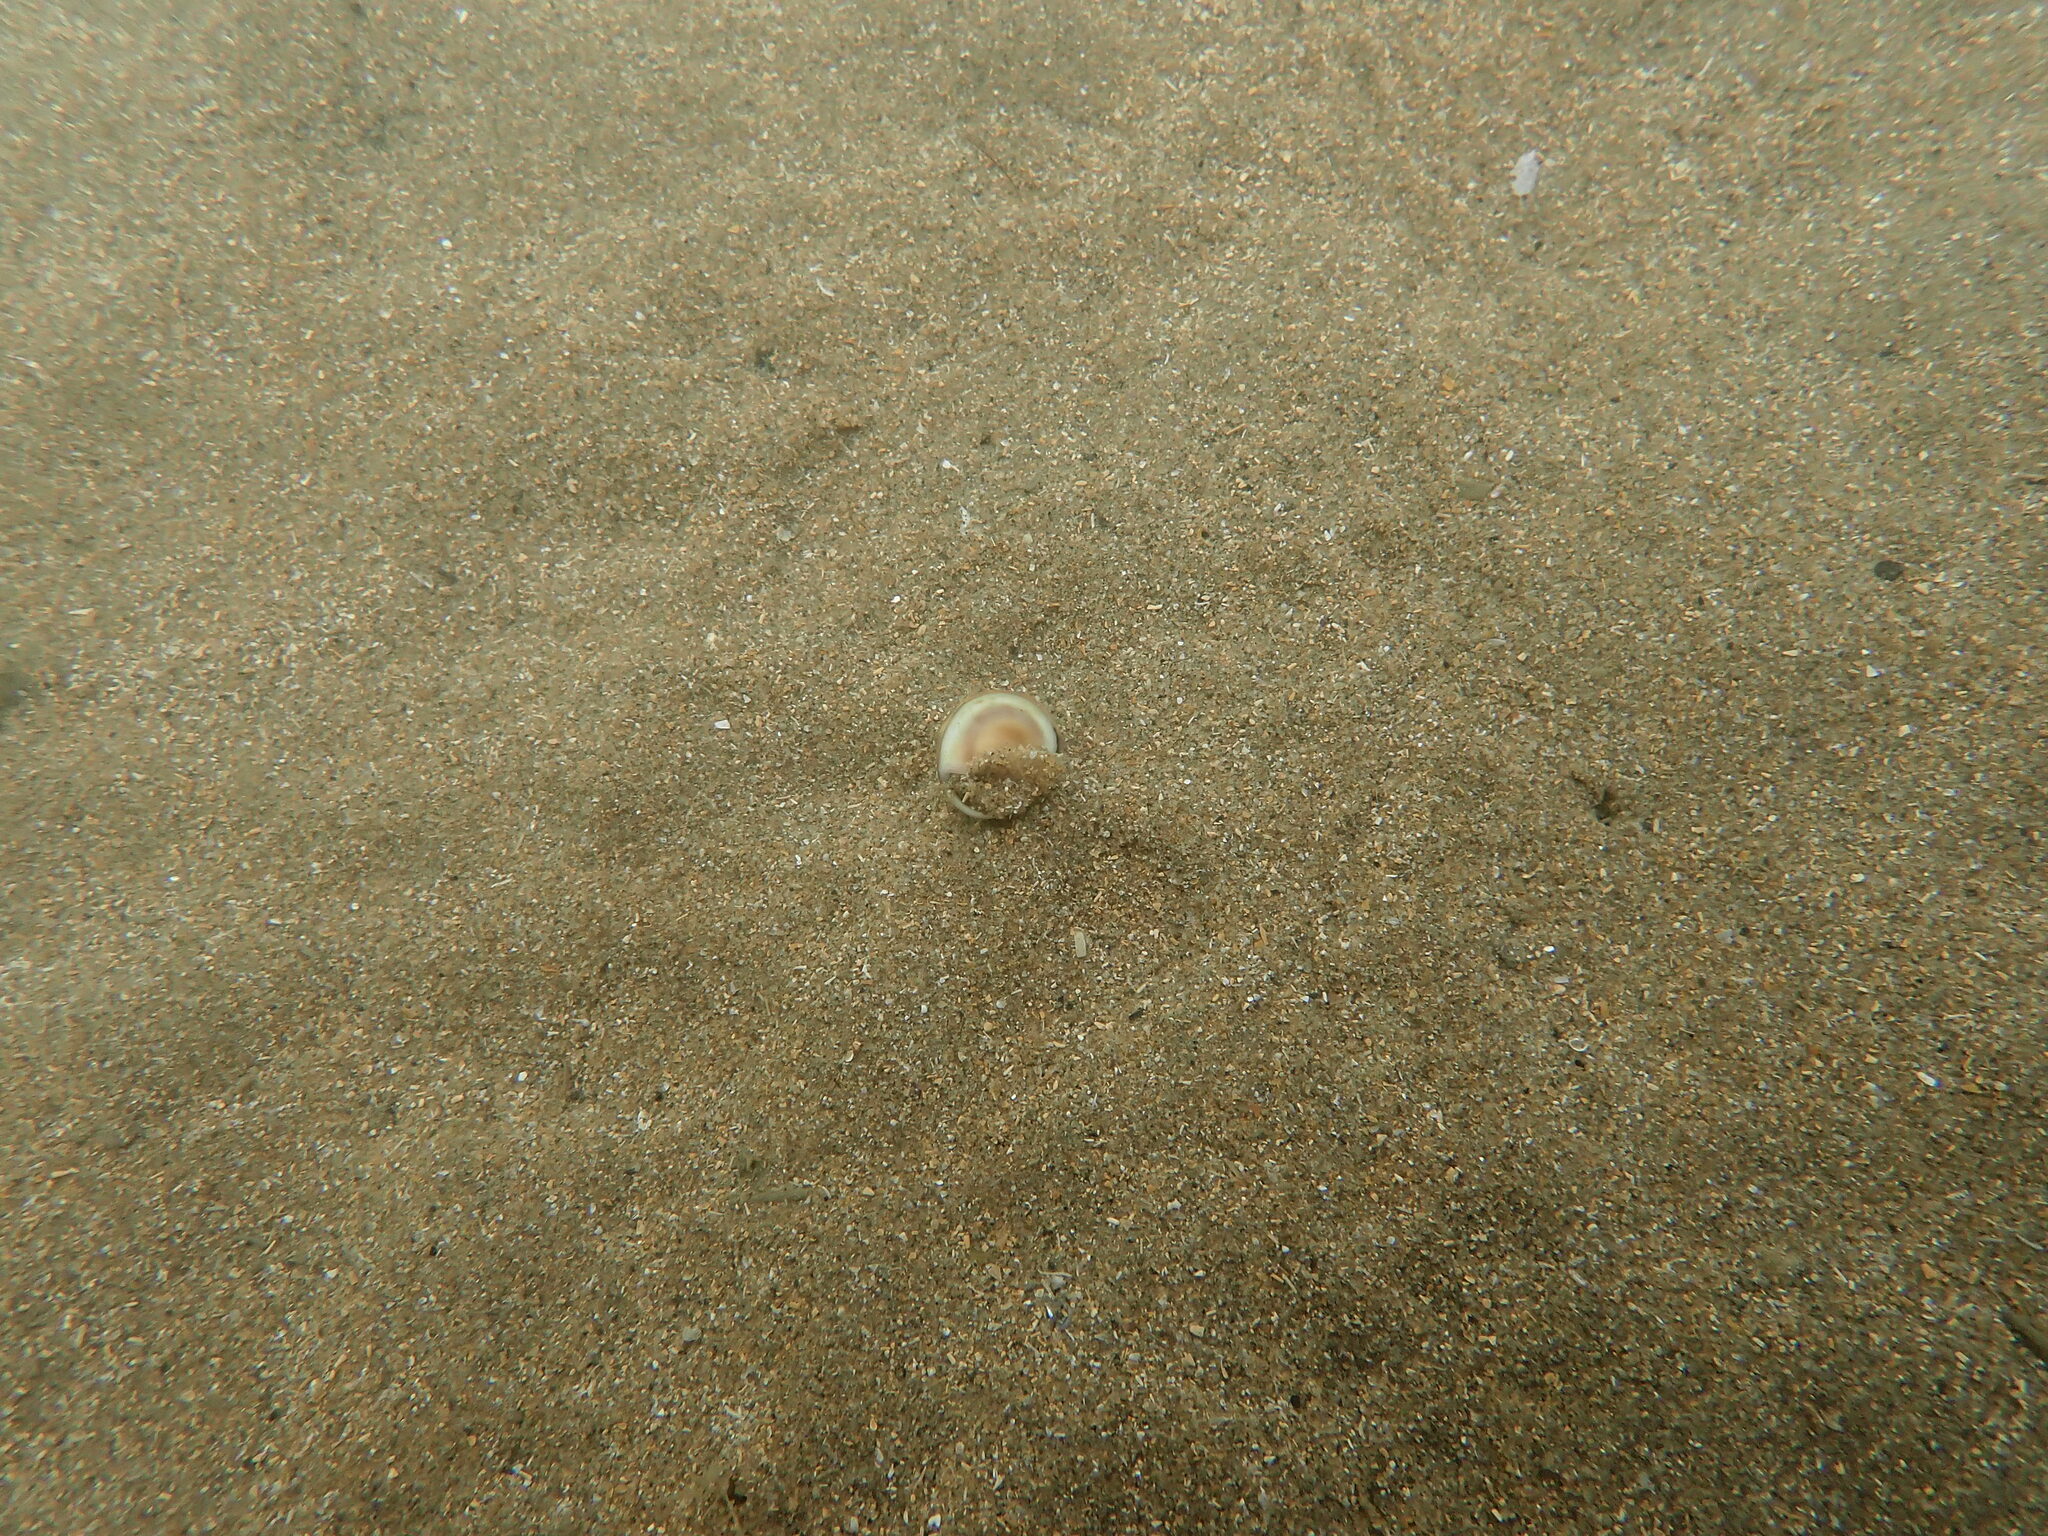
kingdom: Animalia
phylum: Mollusca
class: Gastropoda
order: Neogastropoda
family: Nassariidae
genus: Tritia
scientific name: Tritia neritea
